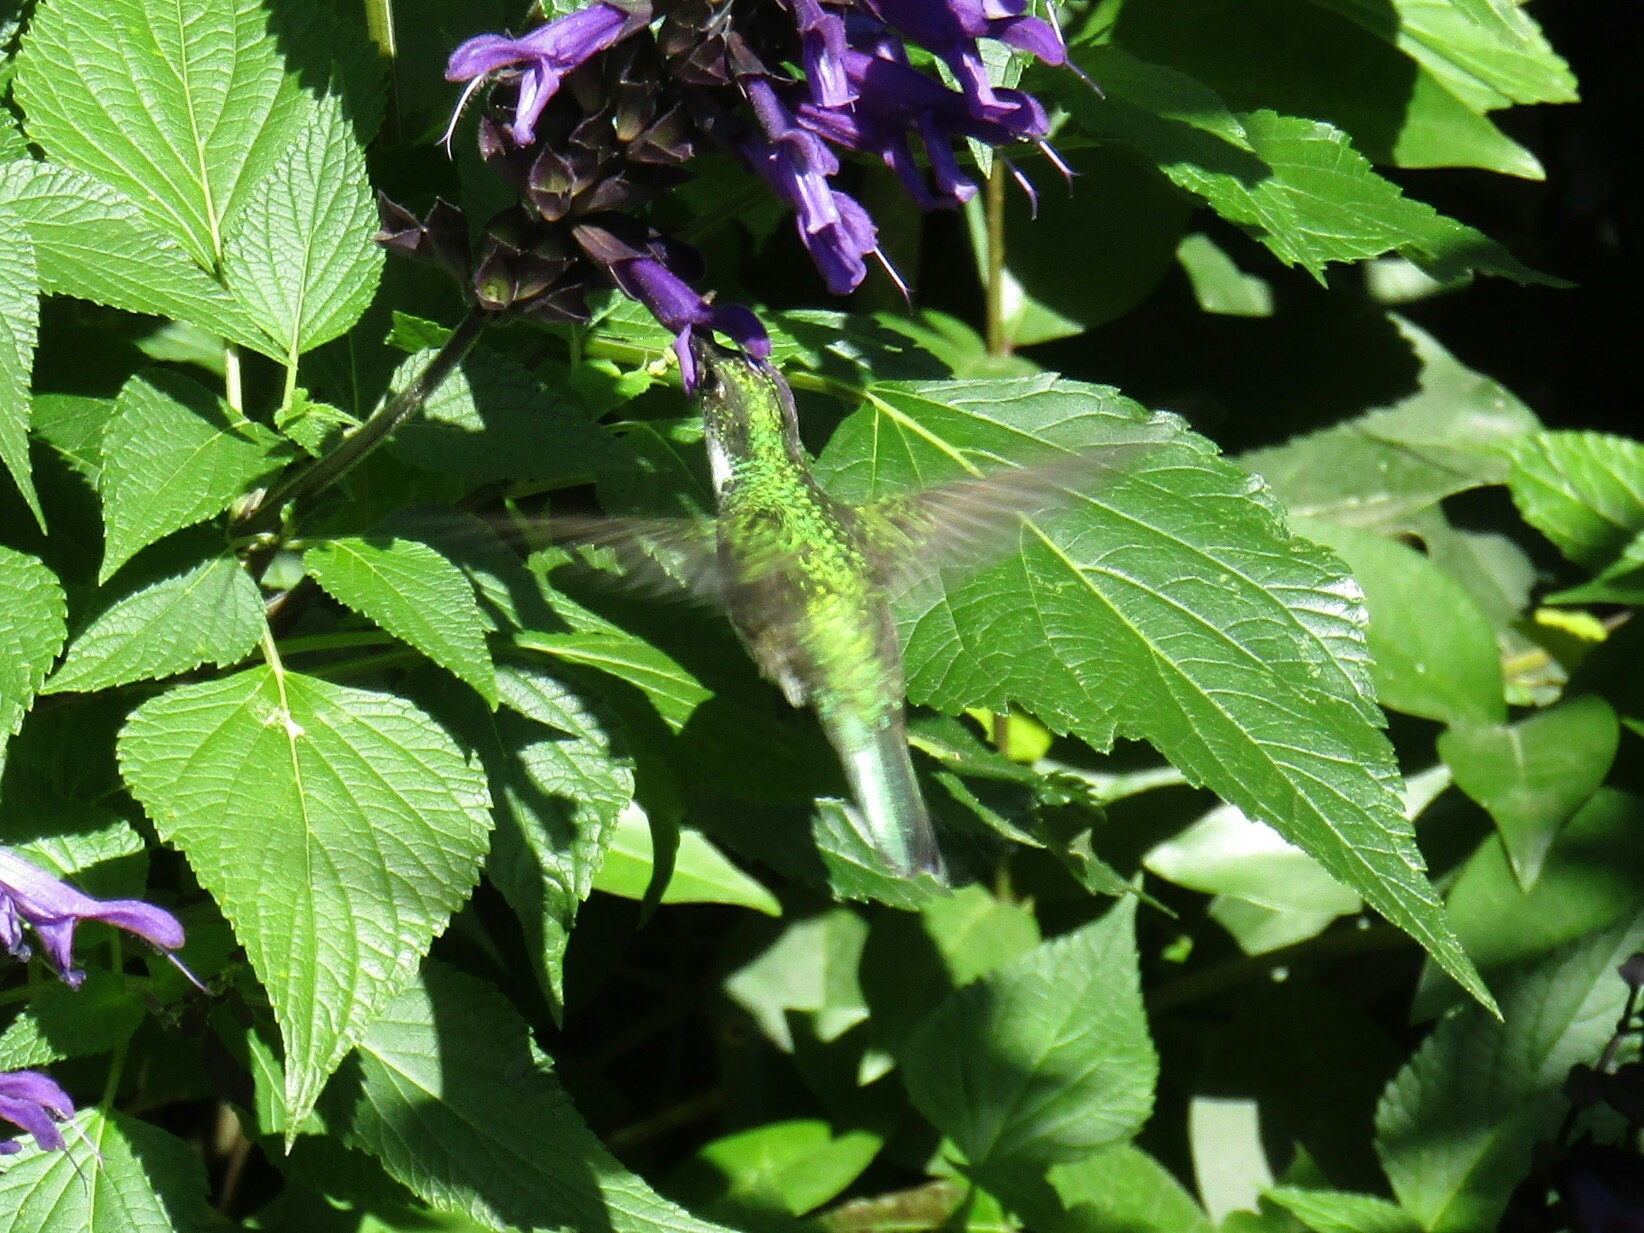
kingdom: Animalia
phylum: Chordata
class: Aves
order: Apodiformes
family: Trochilidae
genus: Leucochloris
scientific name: Leucochloris albicollis
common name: White-throated hummingbird
